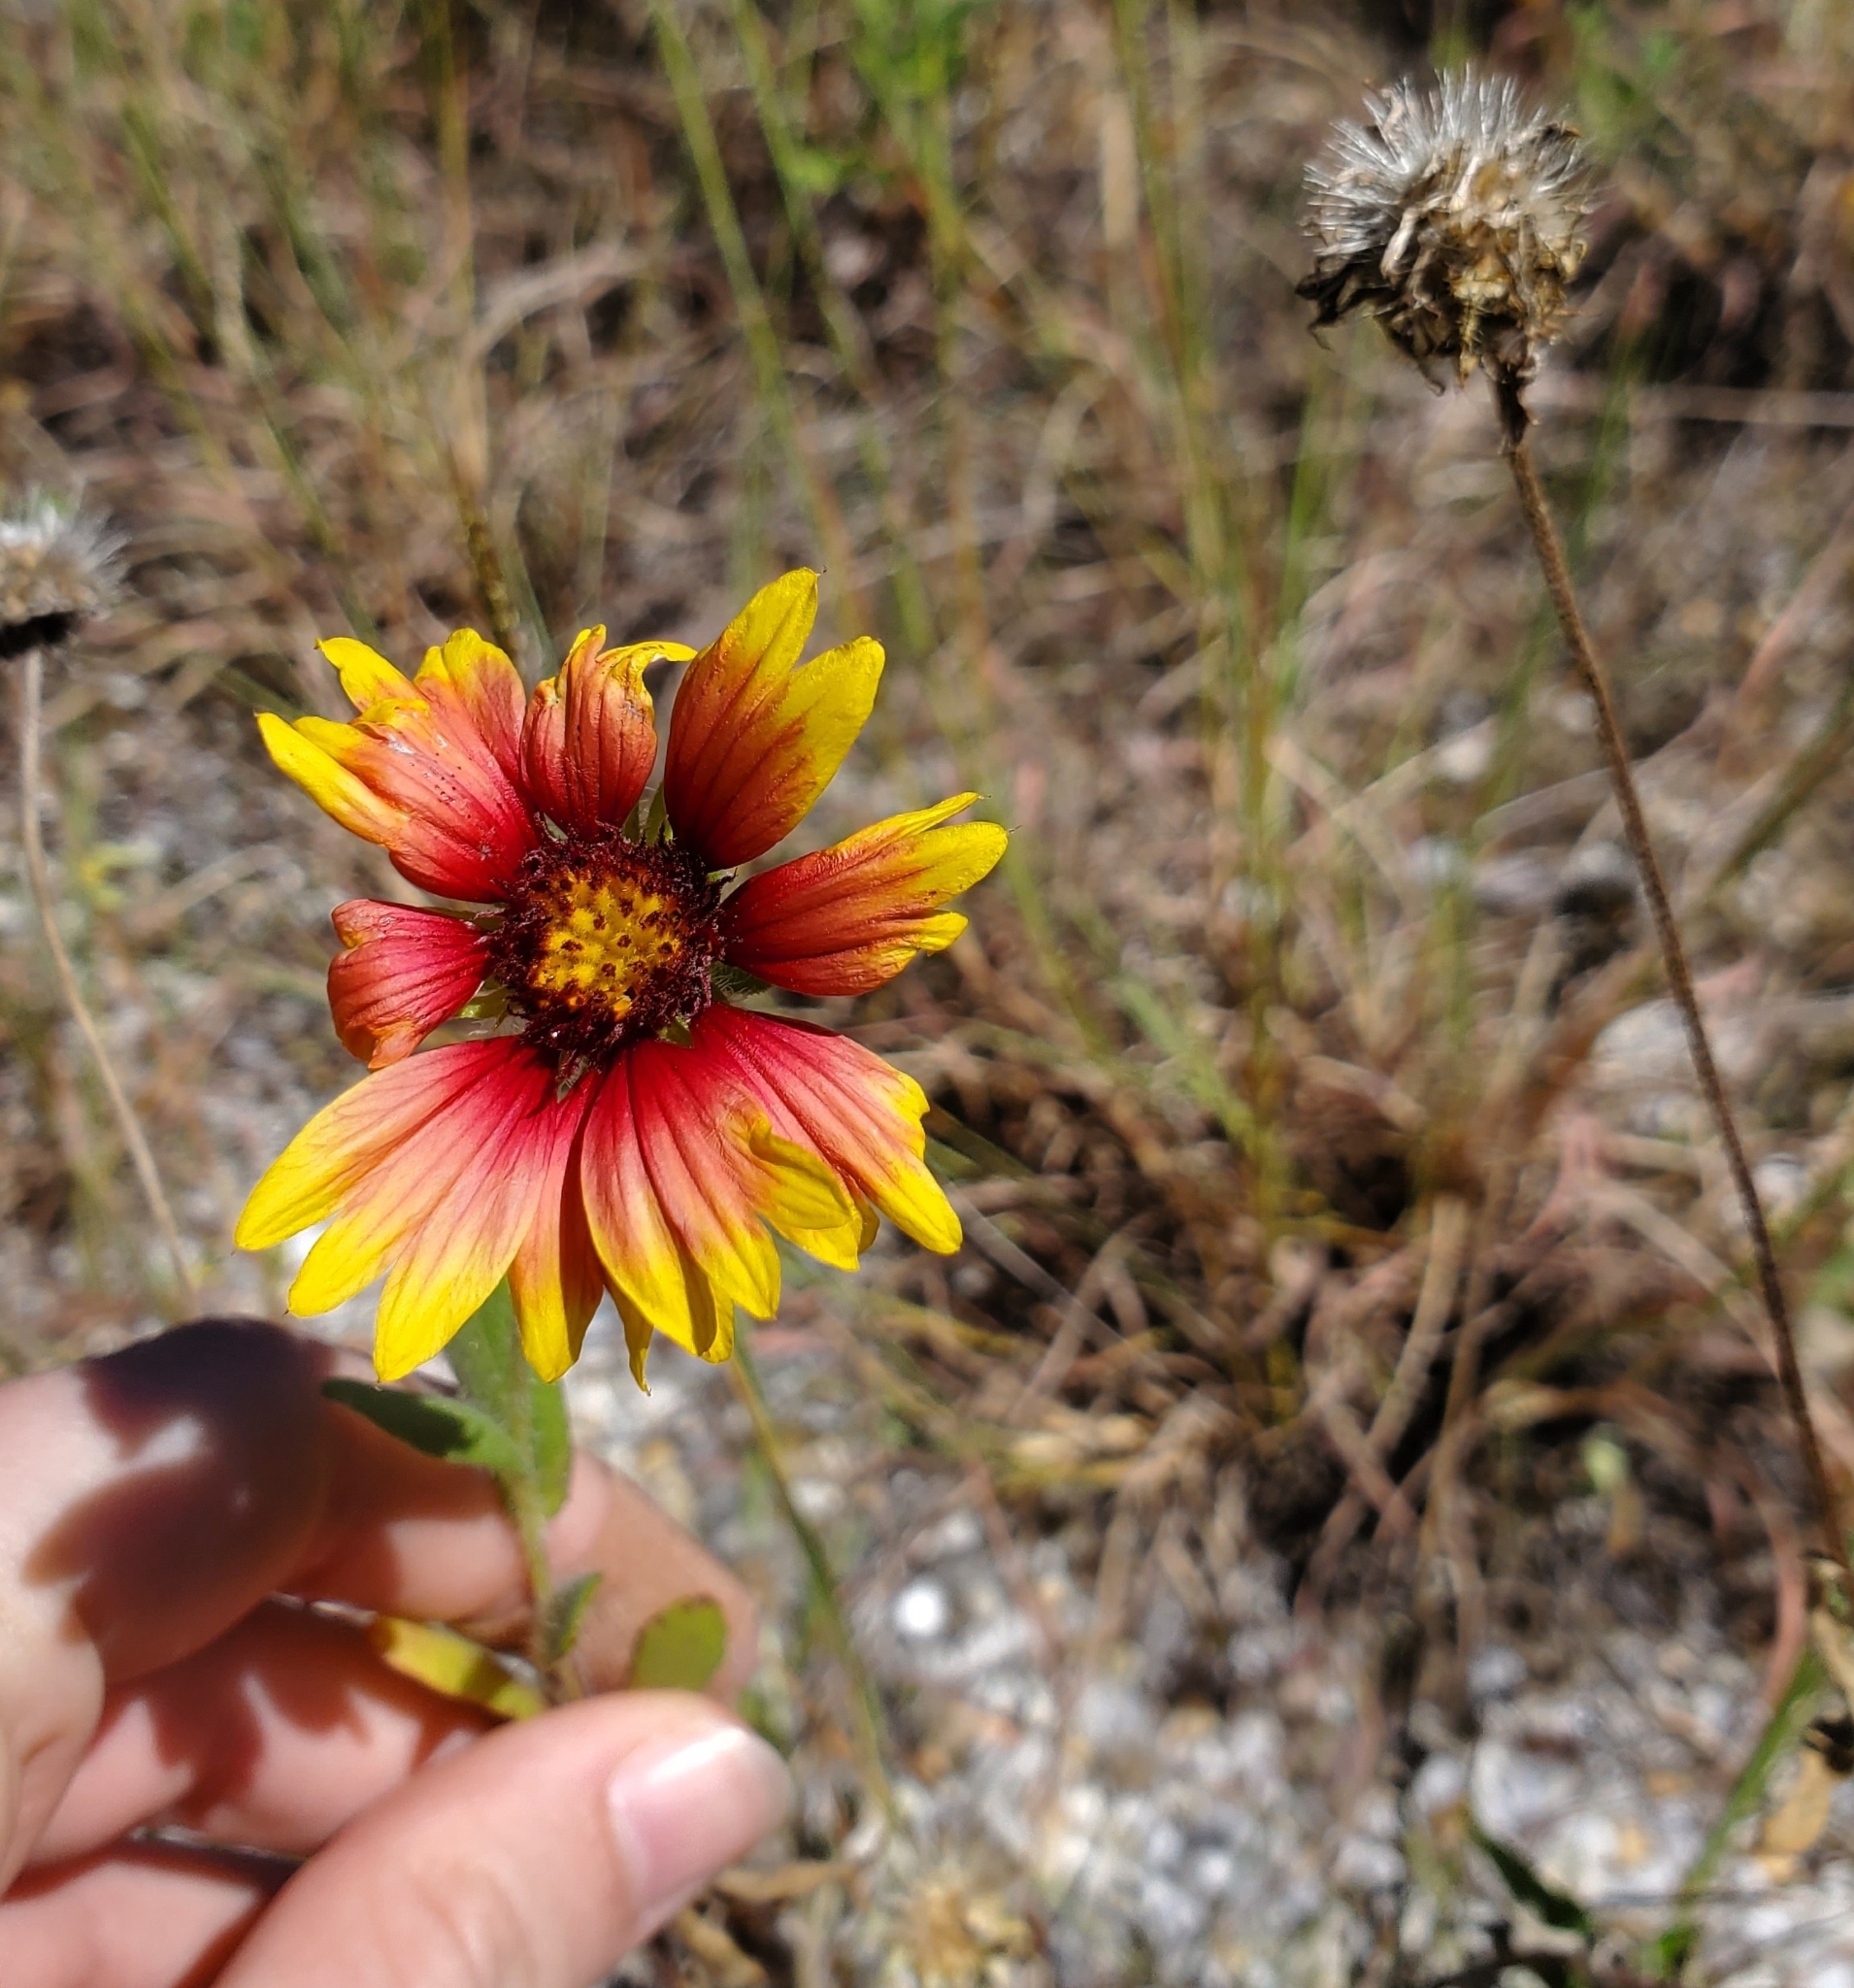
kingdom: Plantae
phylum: Tracheophyta
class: Magnoliopsida
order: Asterales
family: Asteraceae
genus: Gaillardia
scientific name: Gaillardia pulchella
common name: Firewheel
